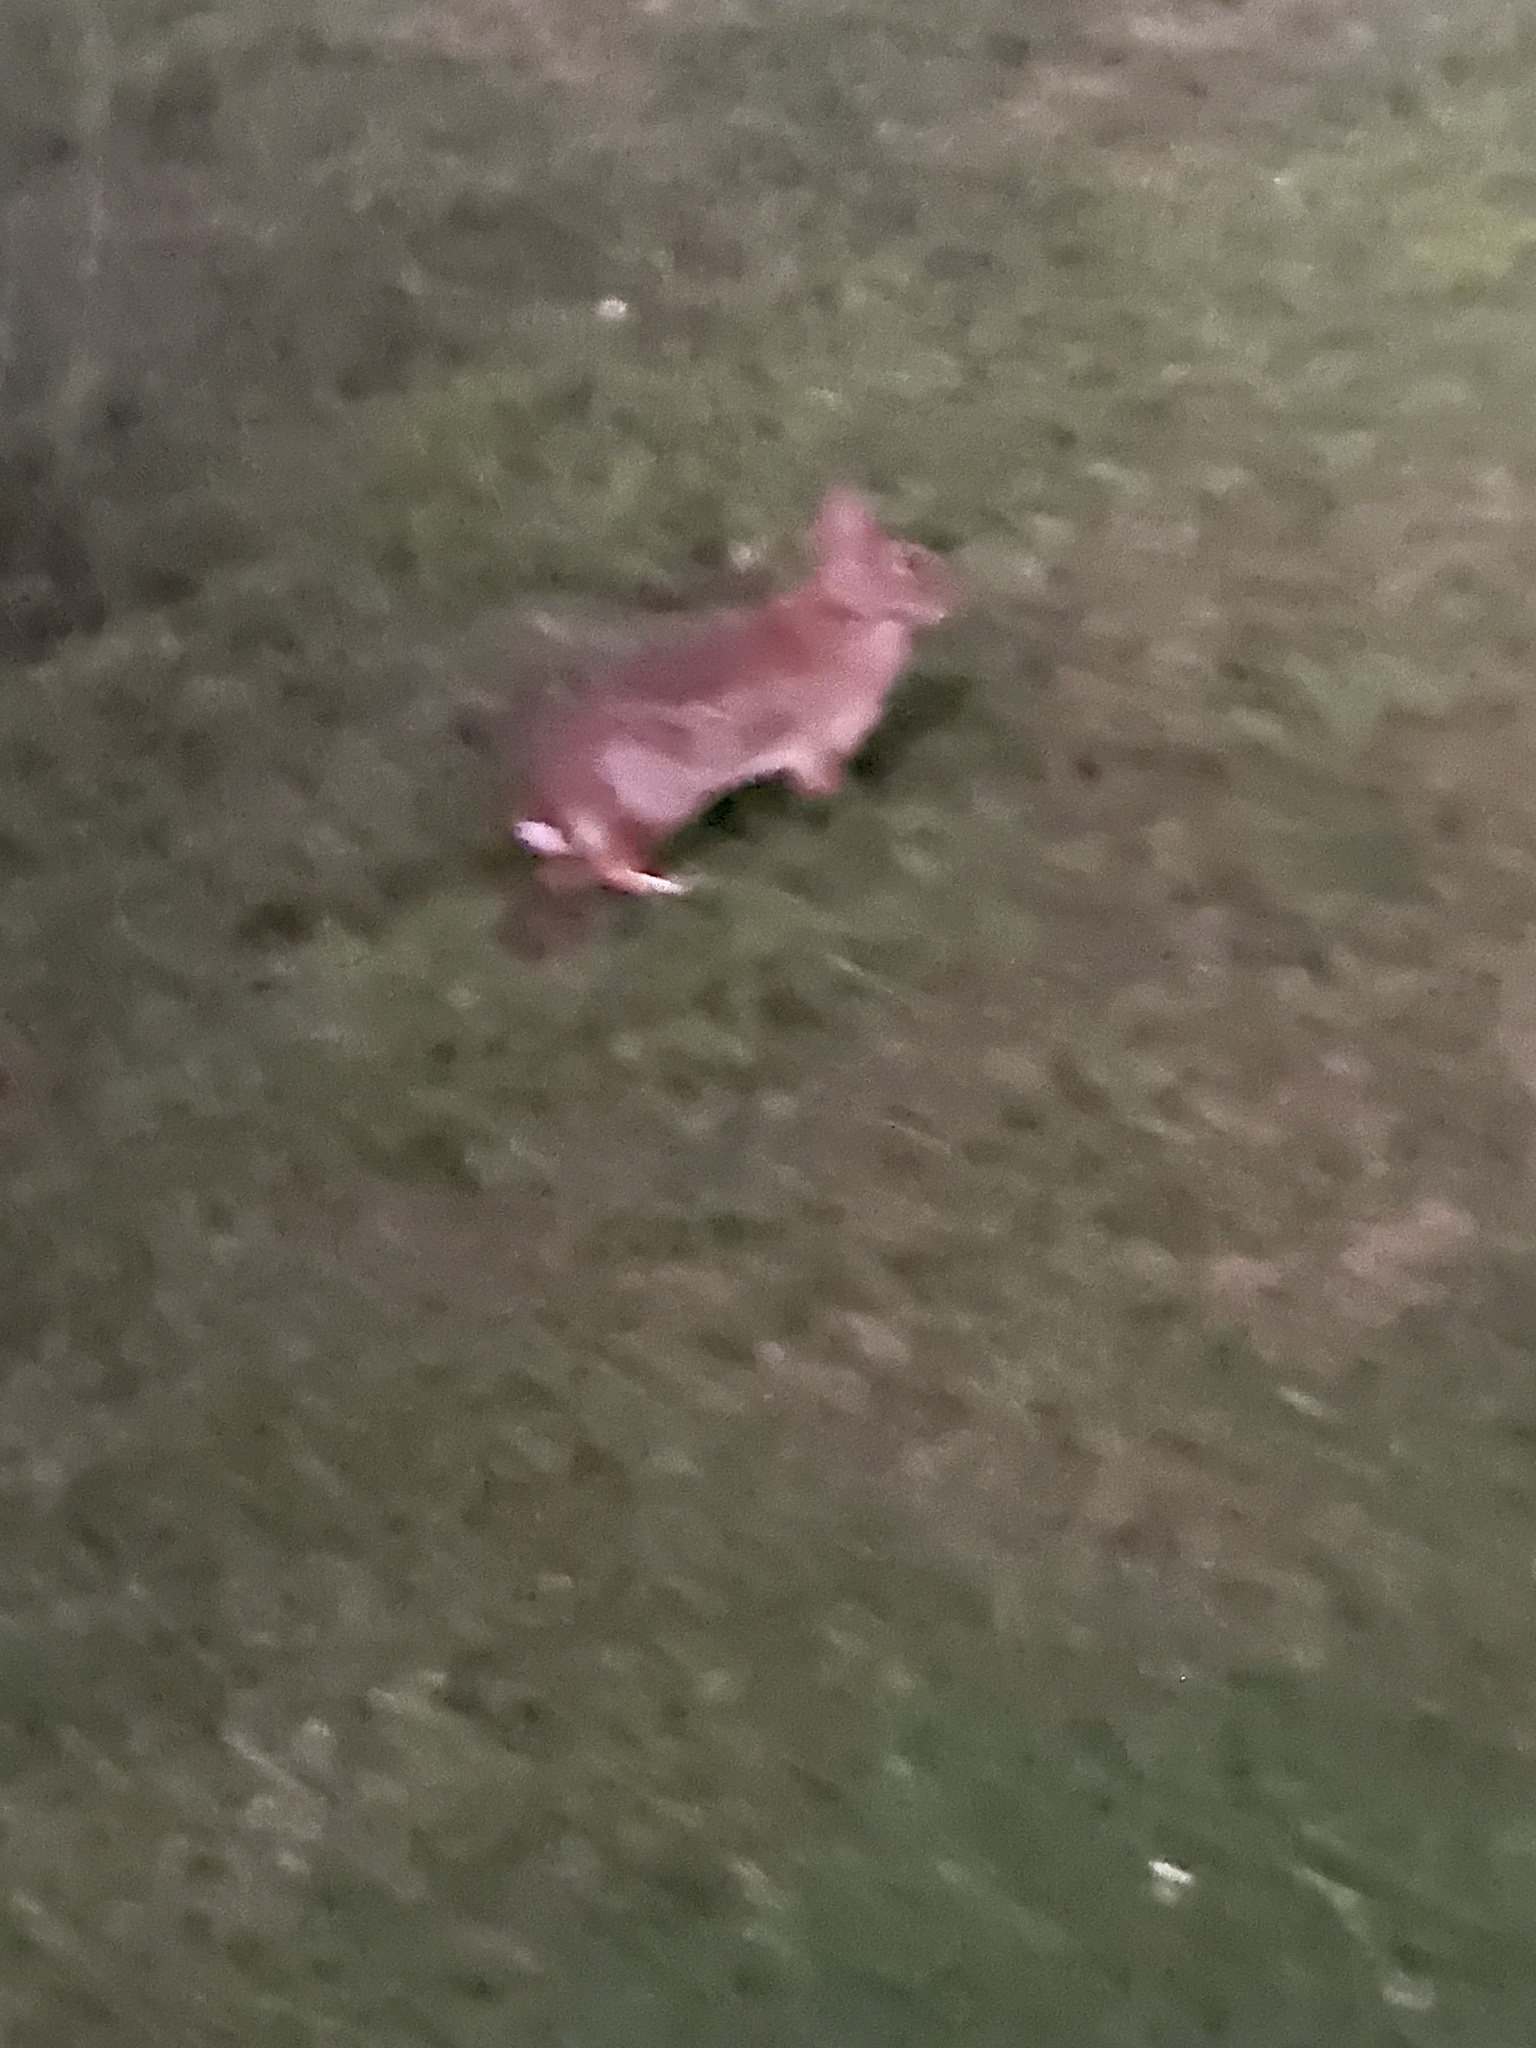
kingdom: Animalia
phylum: Chordata
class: Mammalia
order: Lagomorpha
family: Leporidae
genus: Sylvilagus
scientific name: Sylvilagus floridanus
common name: Eastern cottontail
